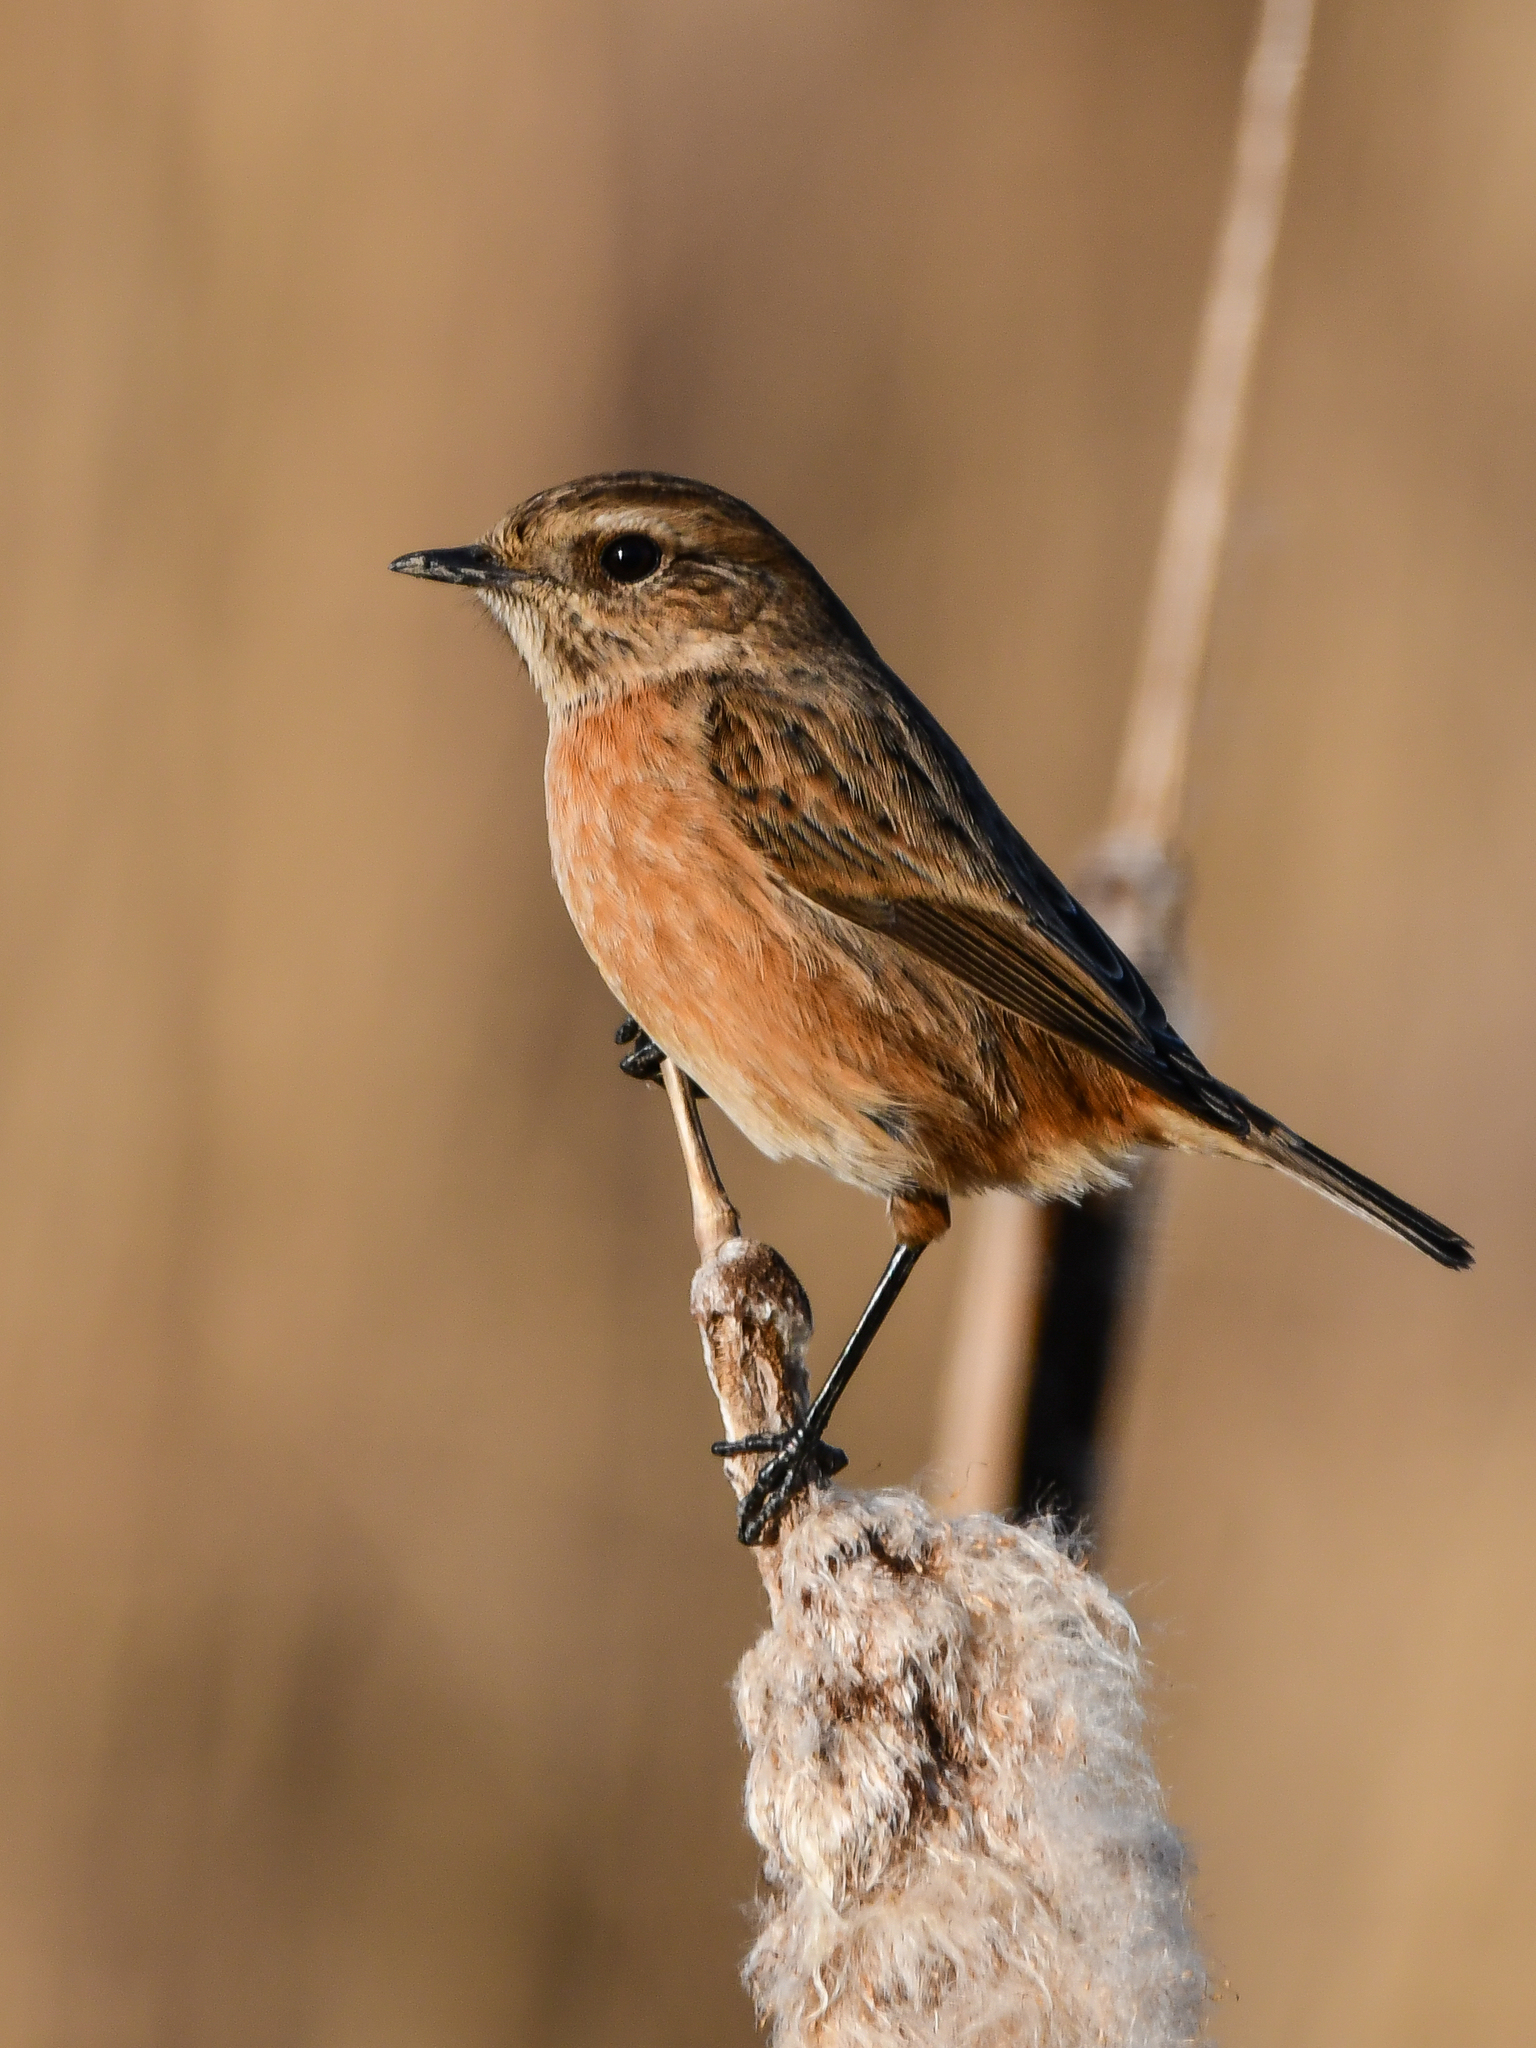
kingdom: Animalia
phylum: Chordata
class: Aves
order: Passeriformes
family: Muscicapidae
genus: Saxicola
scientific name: Saxicola rubicola
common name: European stonechat
